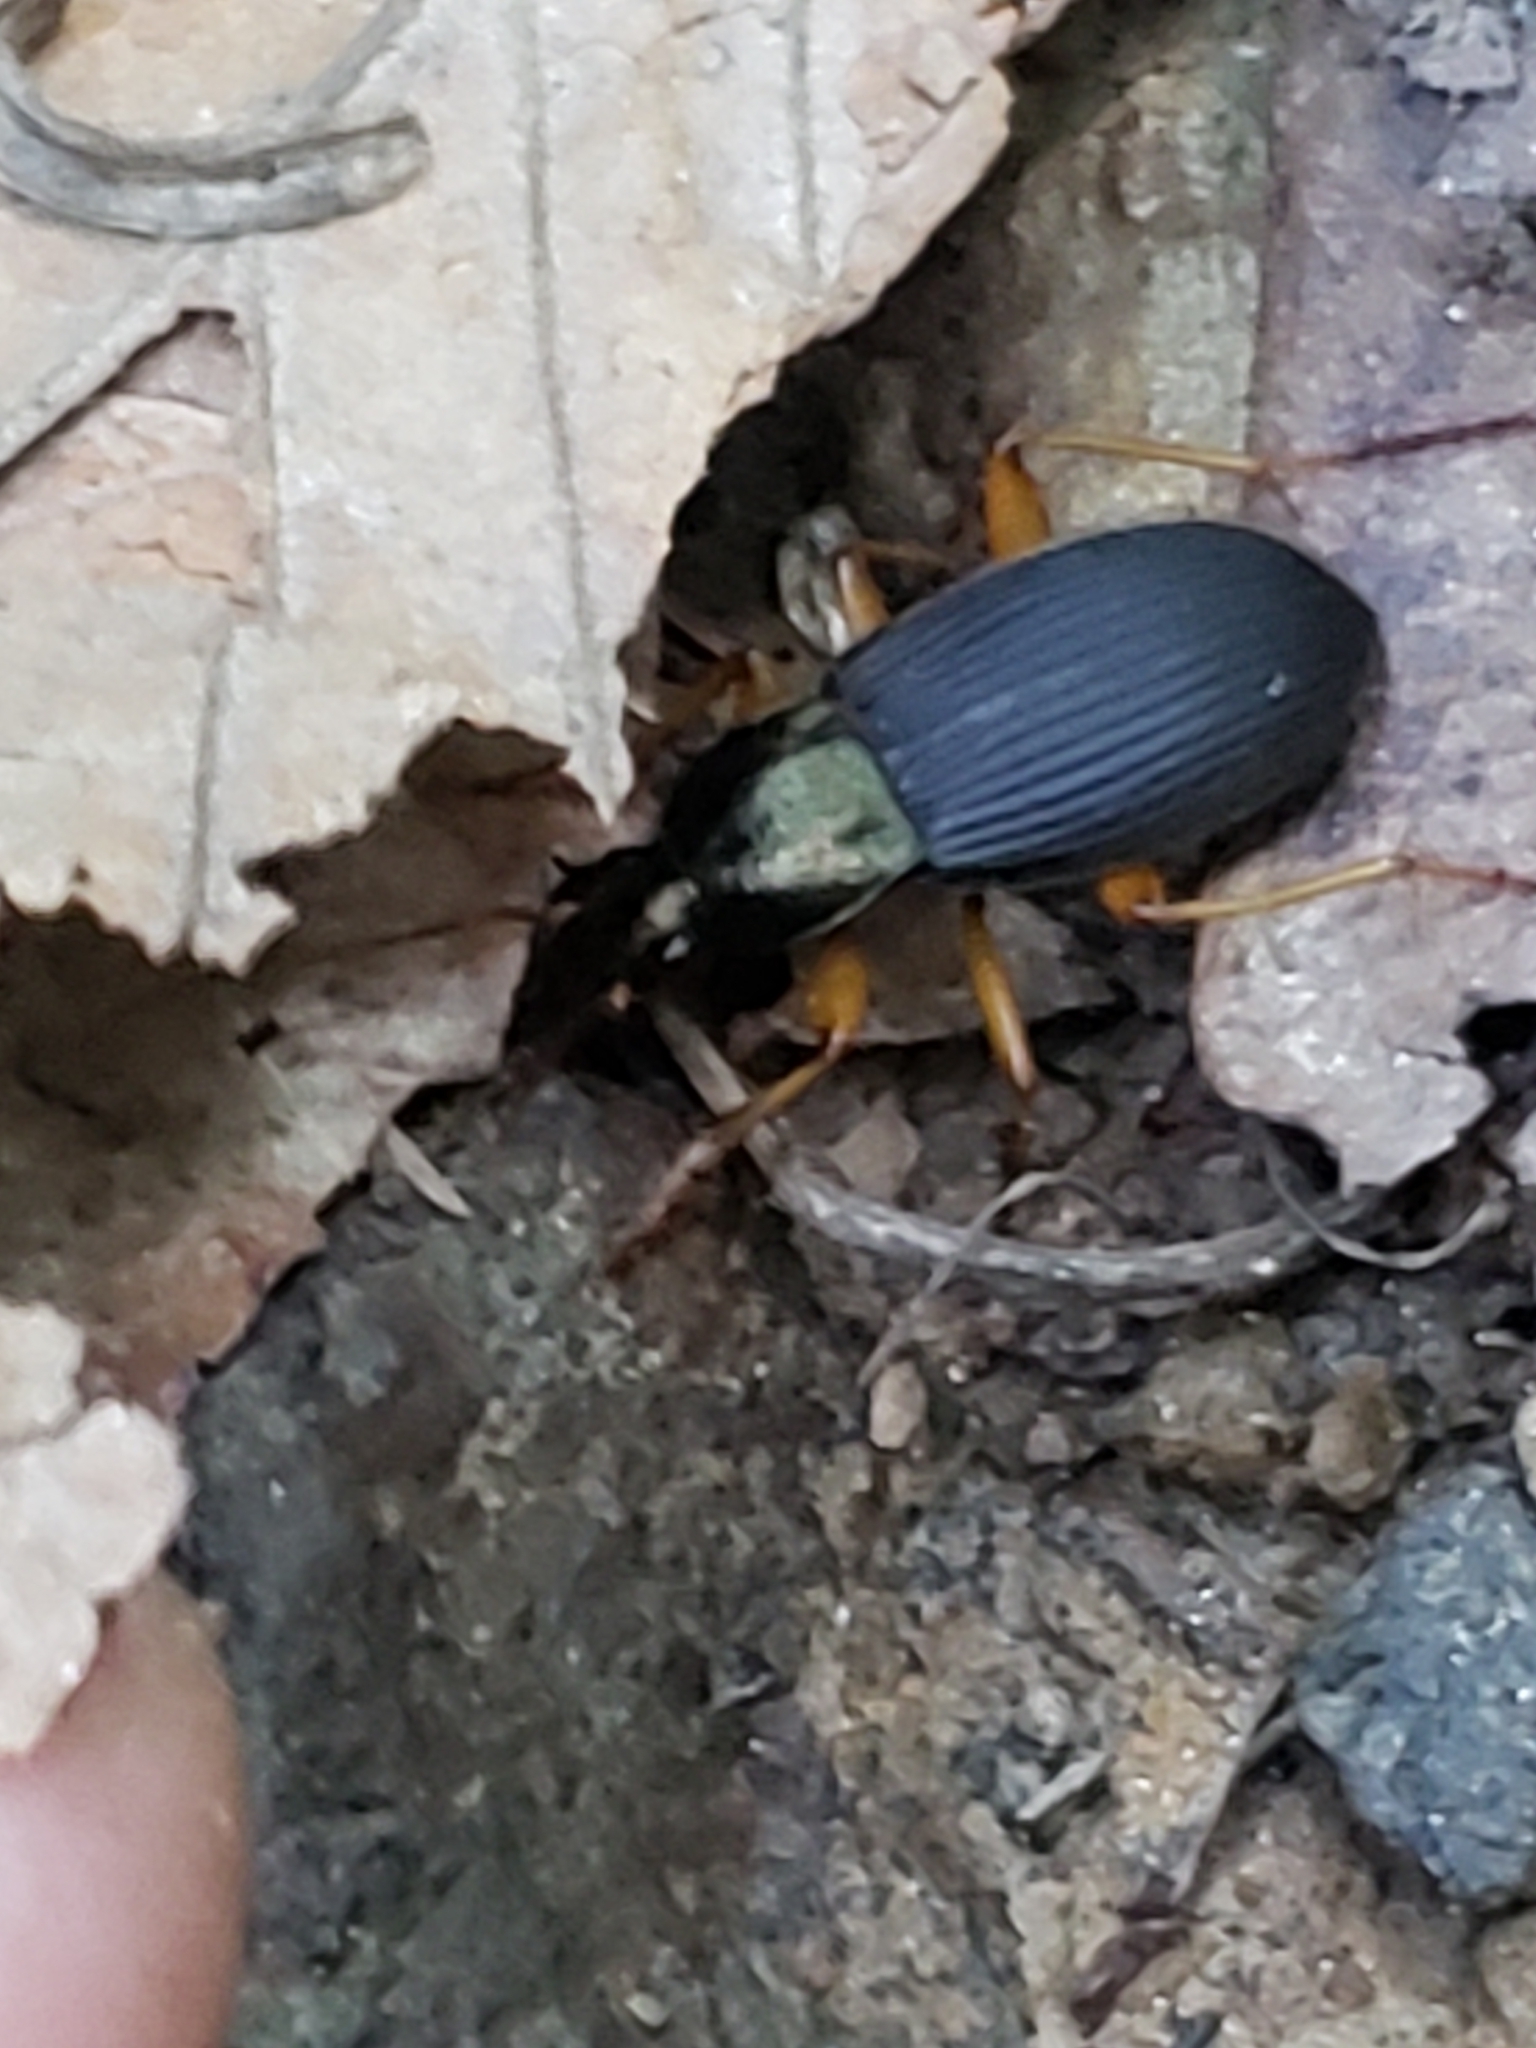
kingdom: Animalia
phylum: Arthropoda
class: Insecta
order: Coleoptera
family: Carabidae
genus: Chlaenius
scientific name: Chlaenius aestivus
